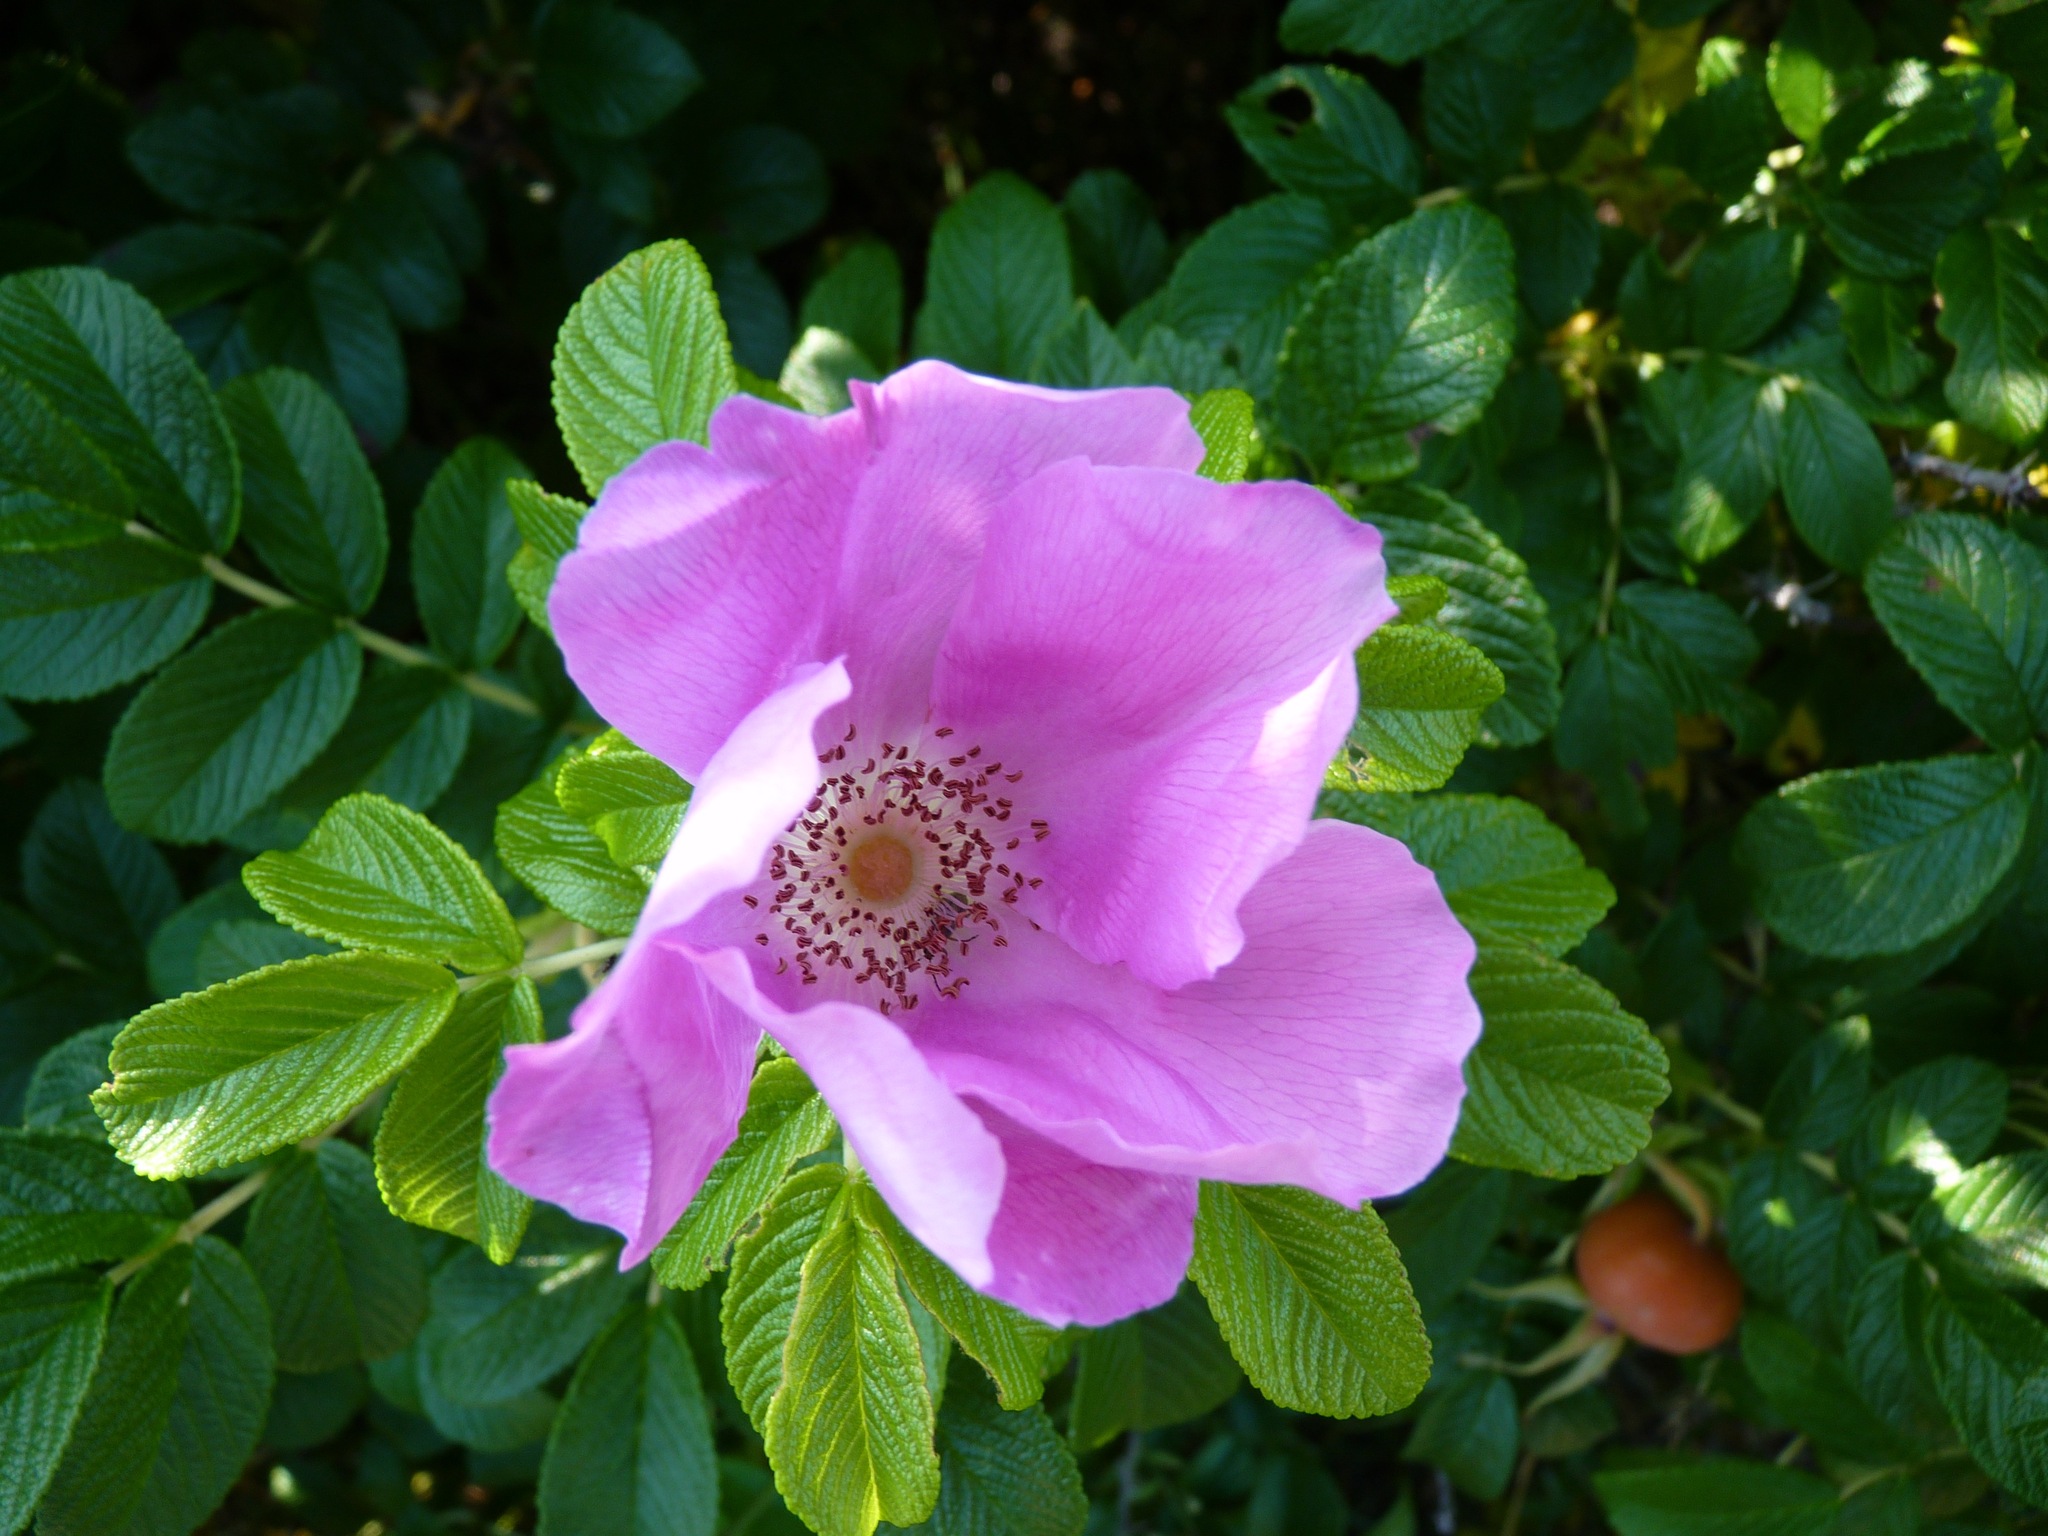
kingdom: Plantae
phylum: Tracheophyta
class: Magnoliopsida
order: Rosales
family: Rosaceae
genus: Rosa
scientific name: Rosa rugosa
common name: Japanese rose
